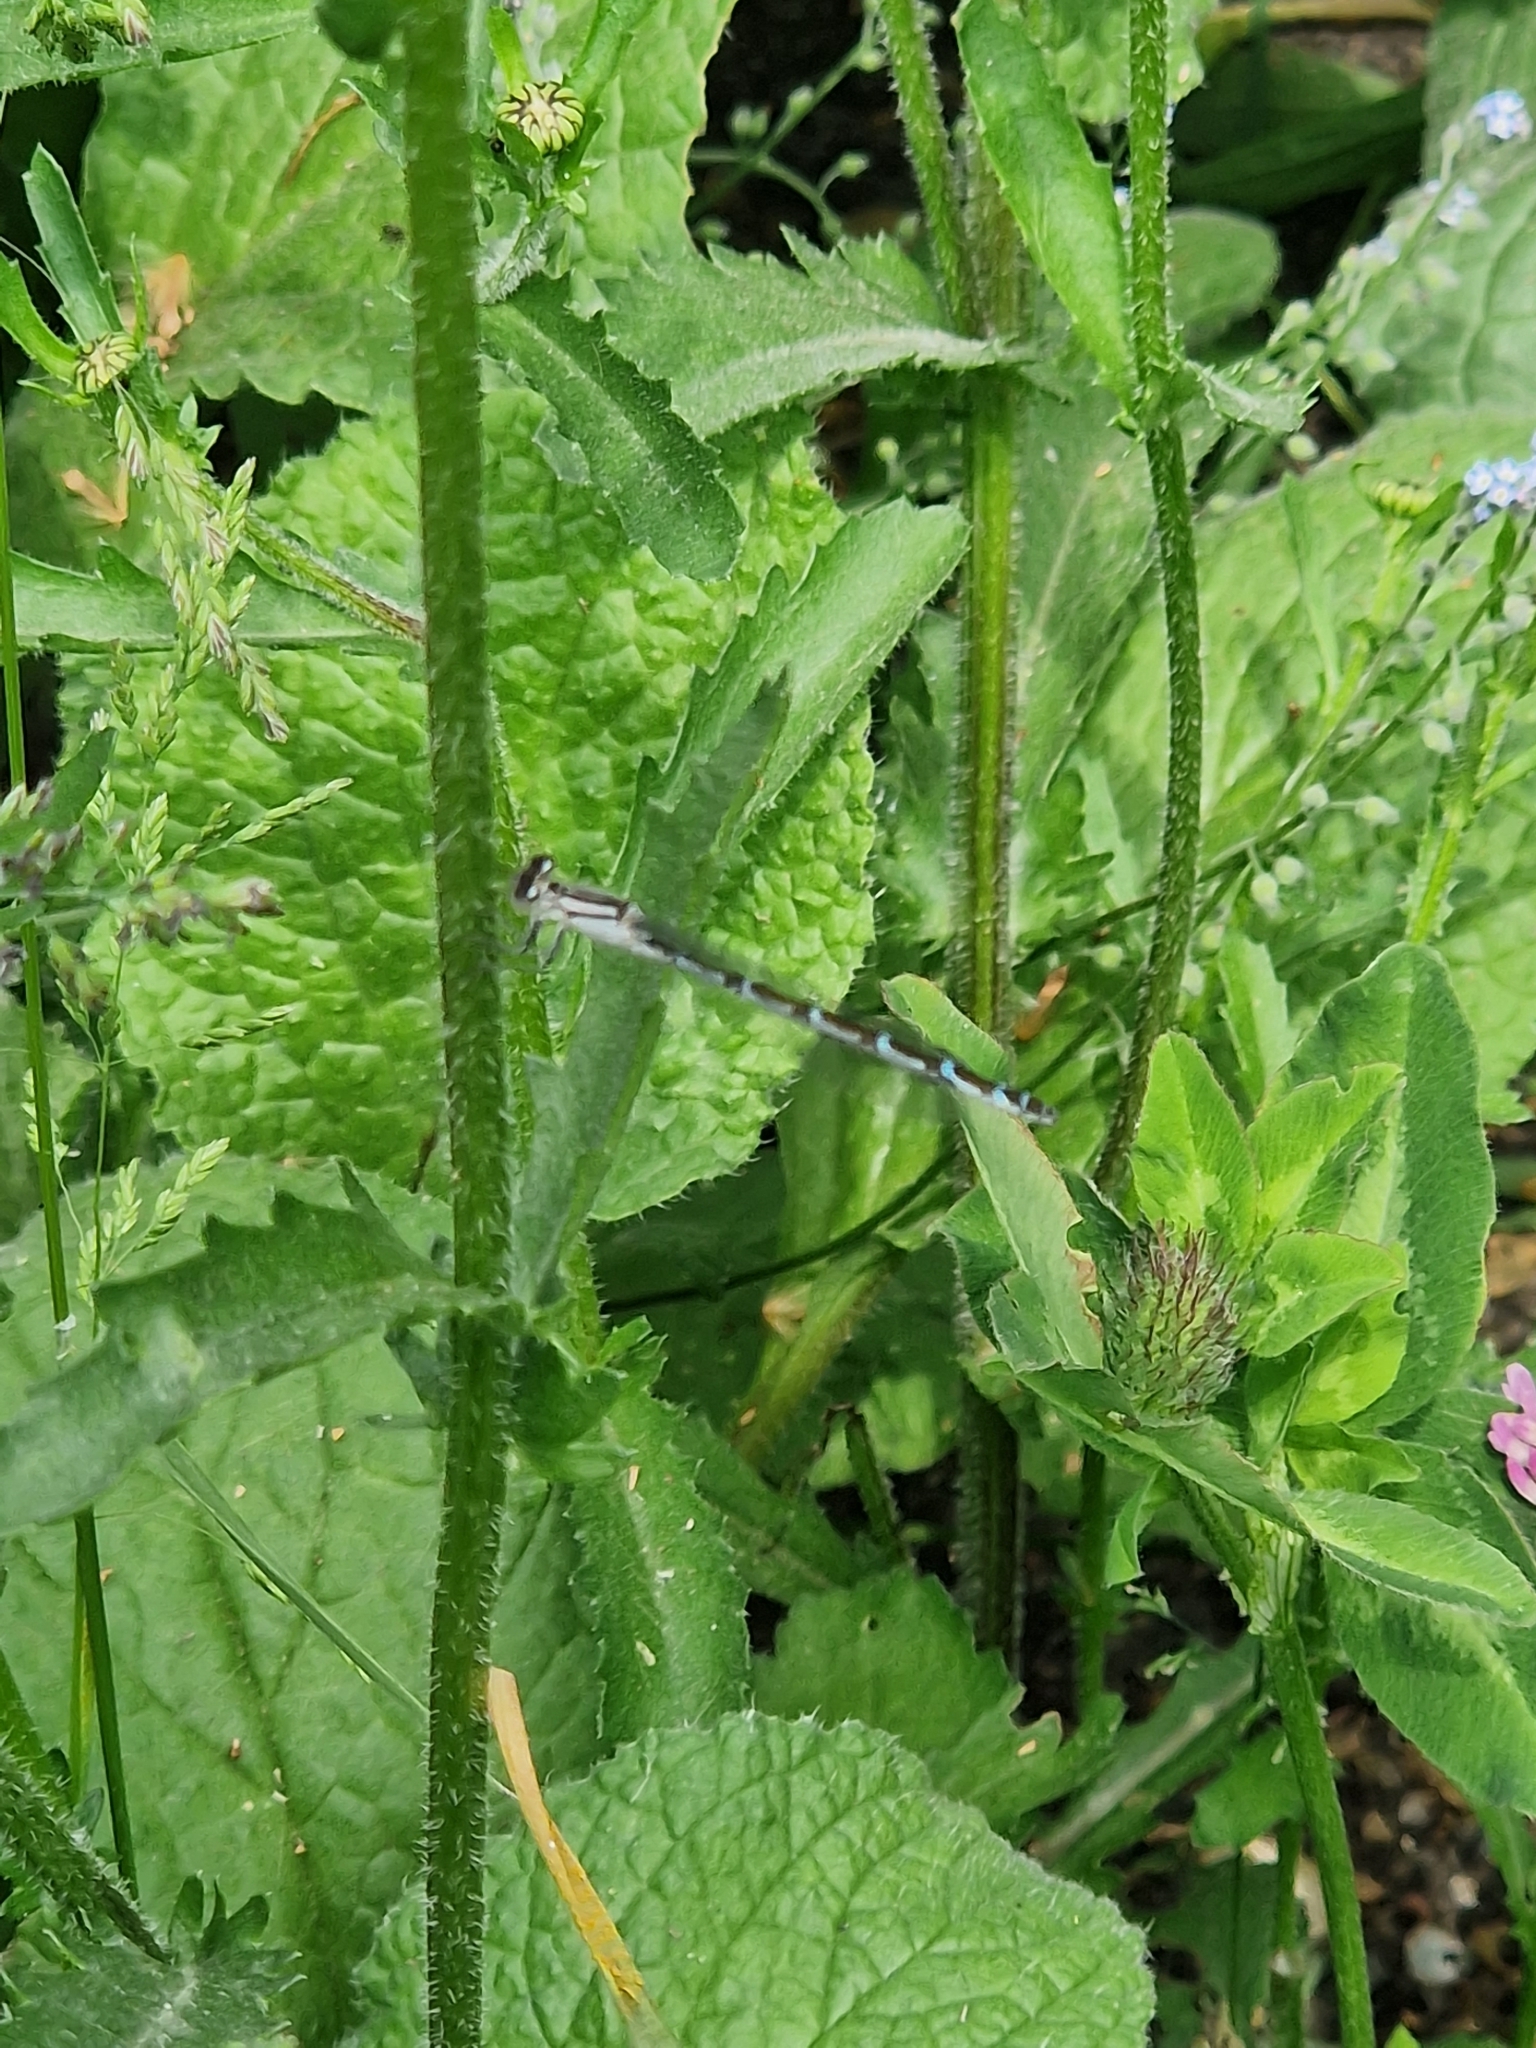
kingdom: Animalia
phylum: Arthropoda
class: Insecta
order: Odonata
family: Coenagrionidae
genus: Enallagma
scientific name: Enallagma cyathigerum
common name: Common blue damselfly
